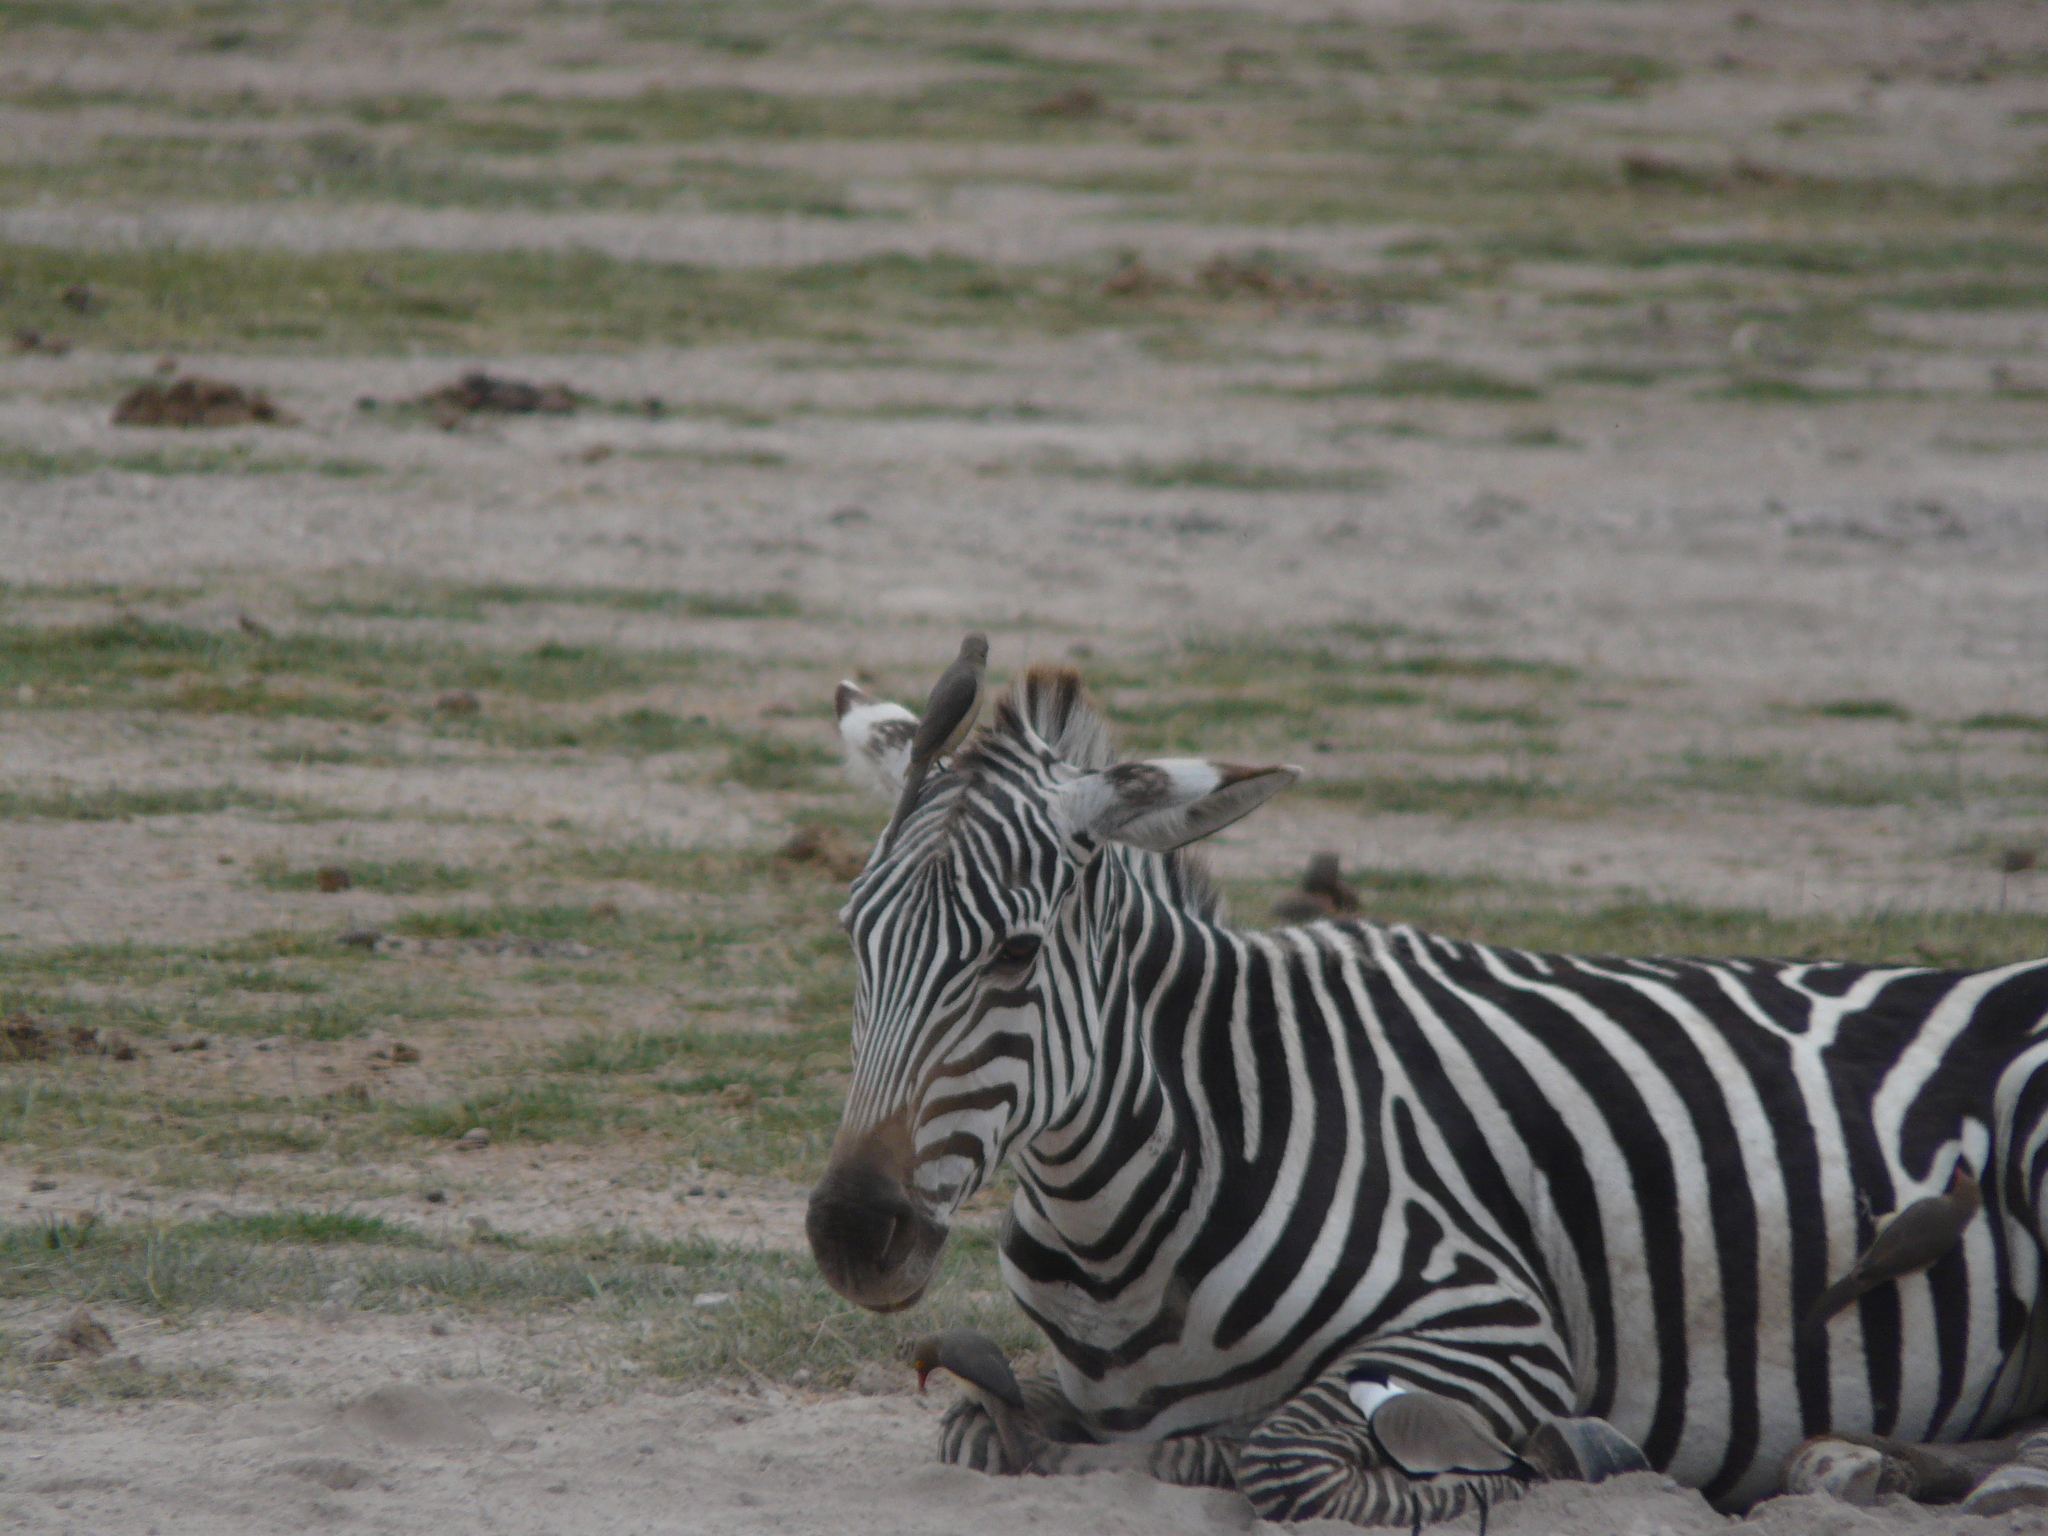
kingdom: Animalia
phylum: Chordata
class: Mammalia
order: Perissodactyla
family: Equidae
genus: Equus
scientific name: Equus quagga
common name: Plains zebra
